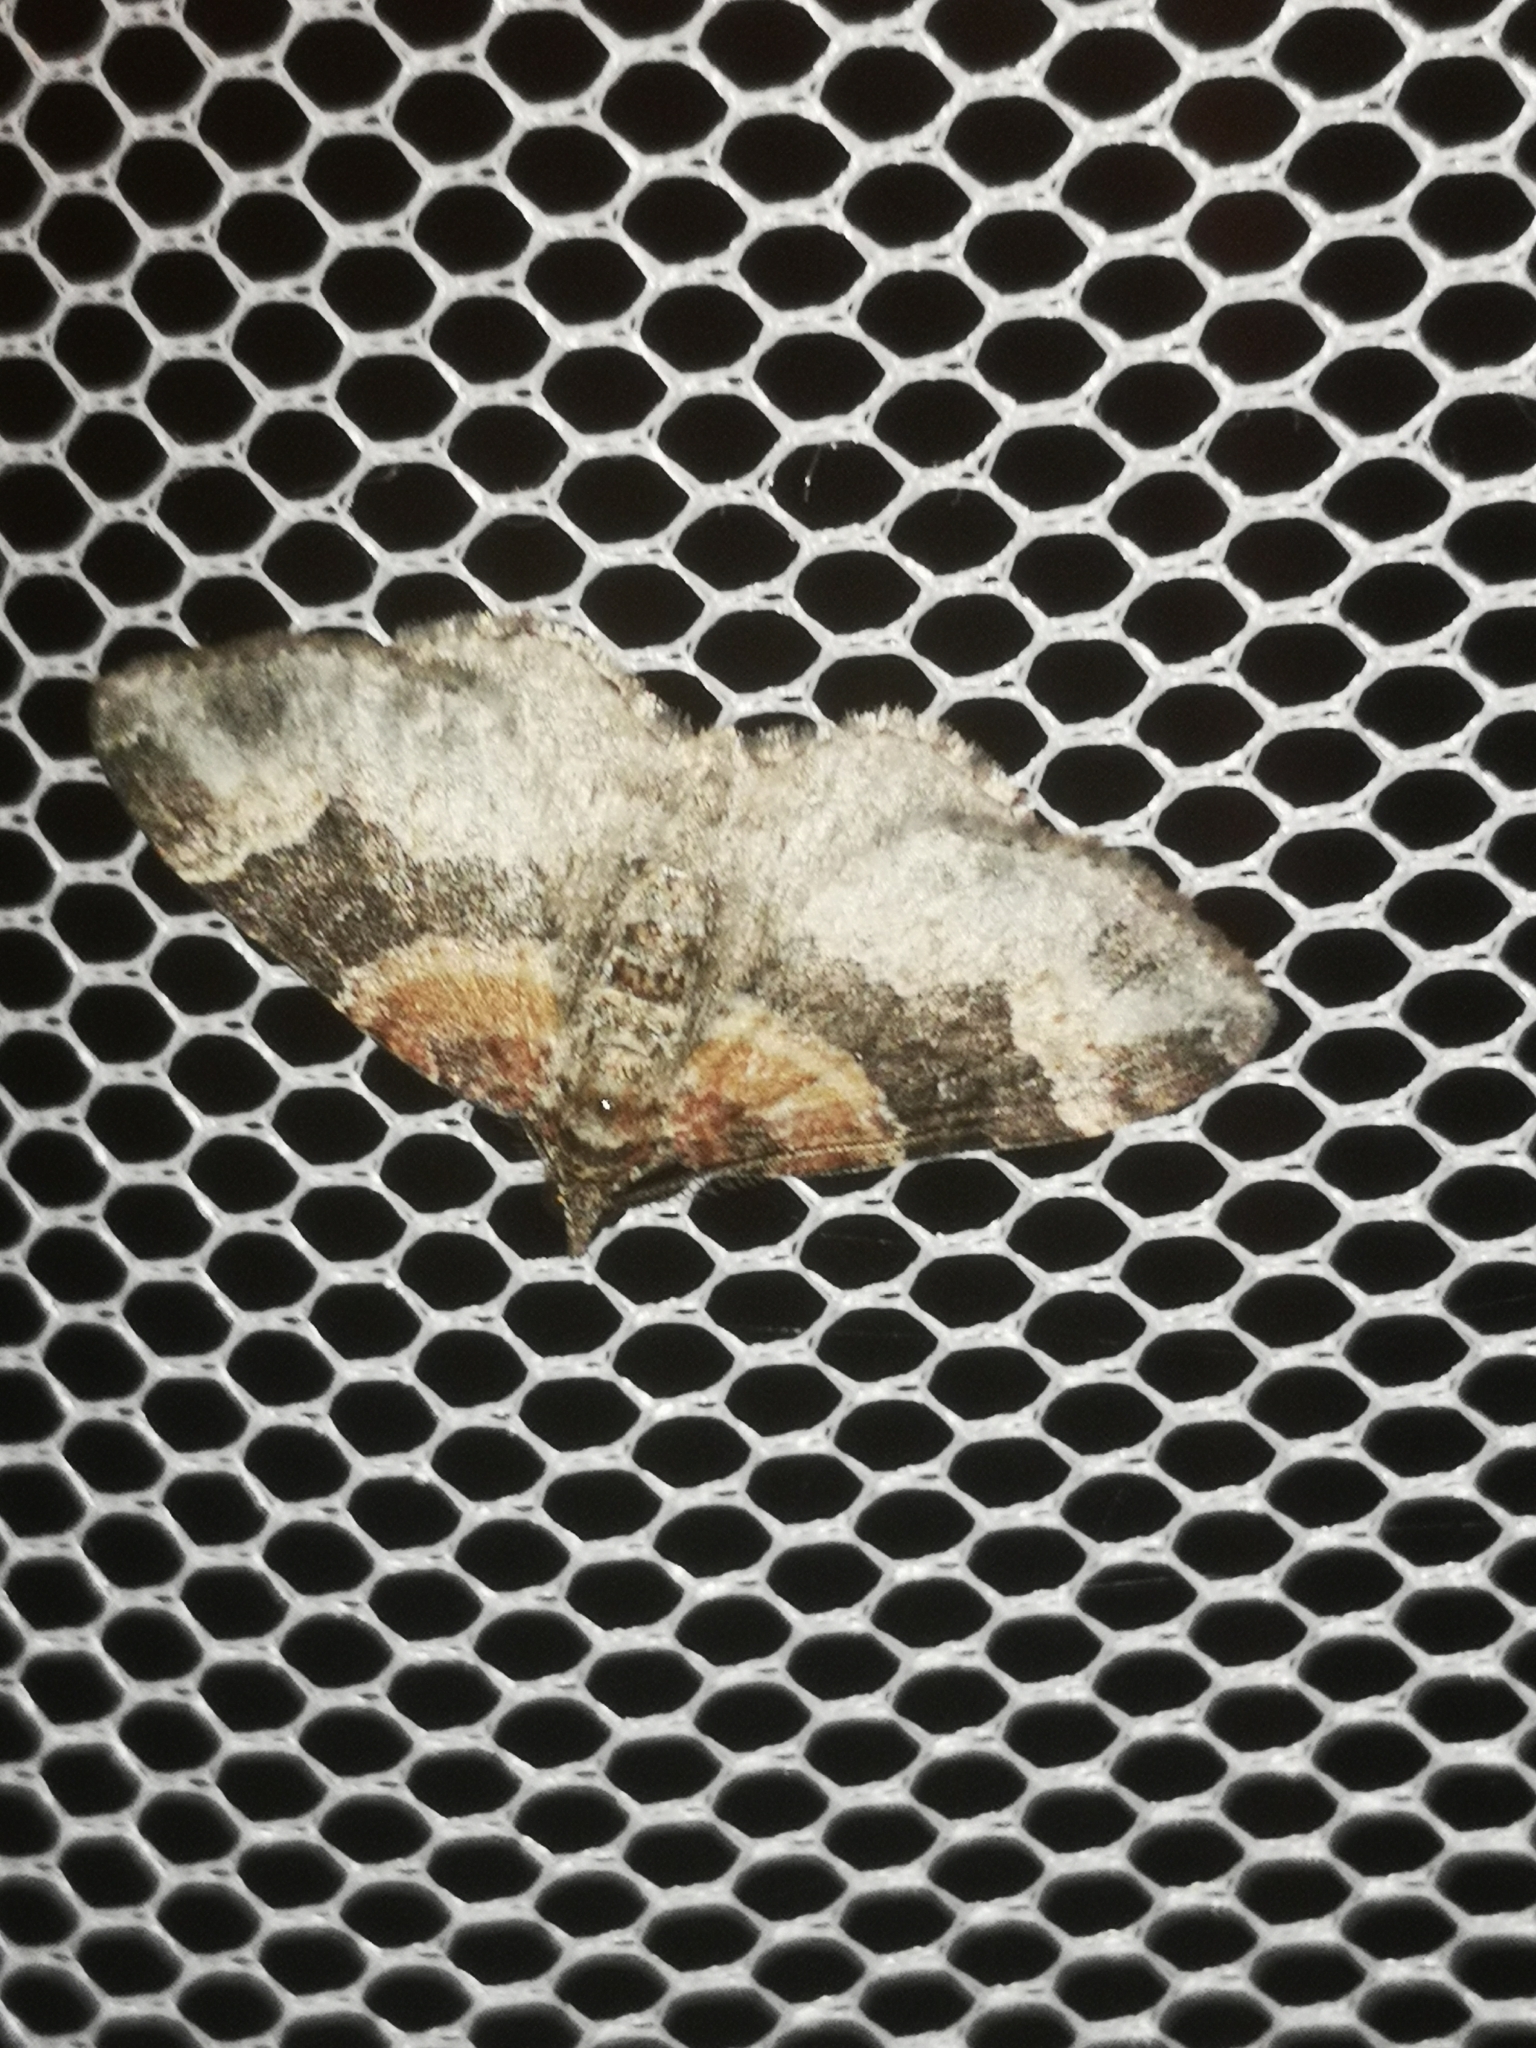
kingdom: Animalia
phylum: Arthropoda
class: Insecta
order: Lepidoptera
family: Geometridae
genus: Xanthorhoe
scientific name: Xanthorhoe ferrugata
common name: Dark-barred twin-spot carpet
